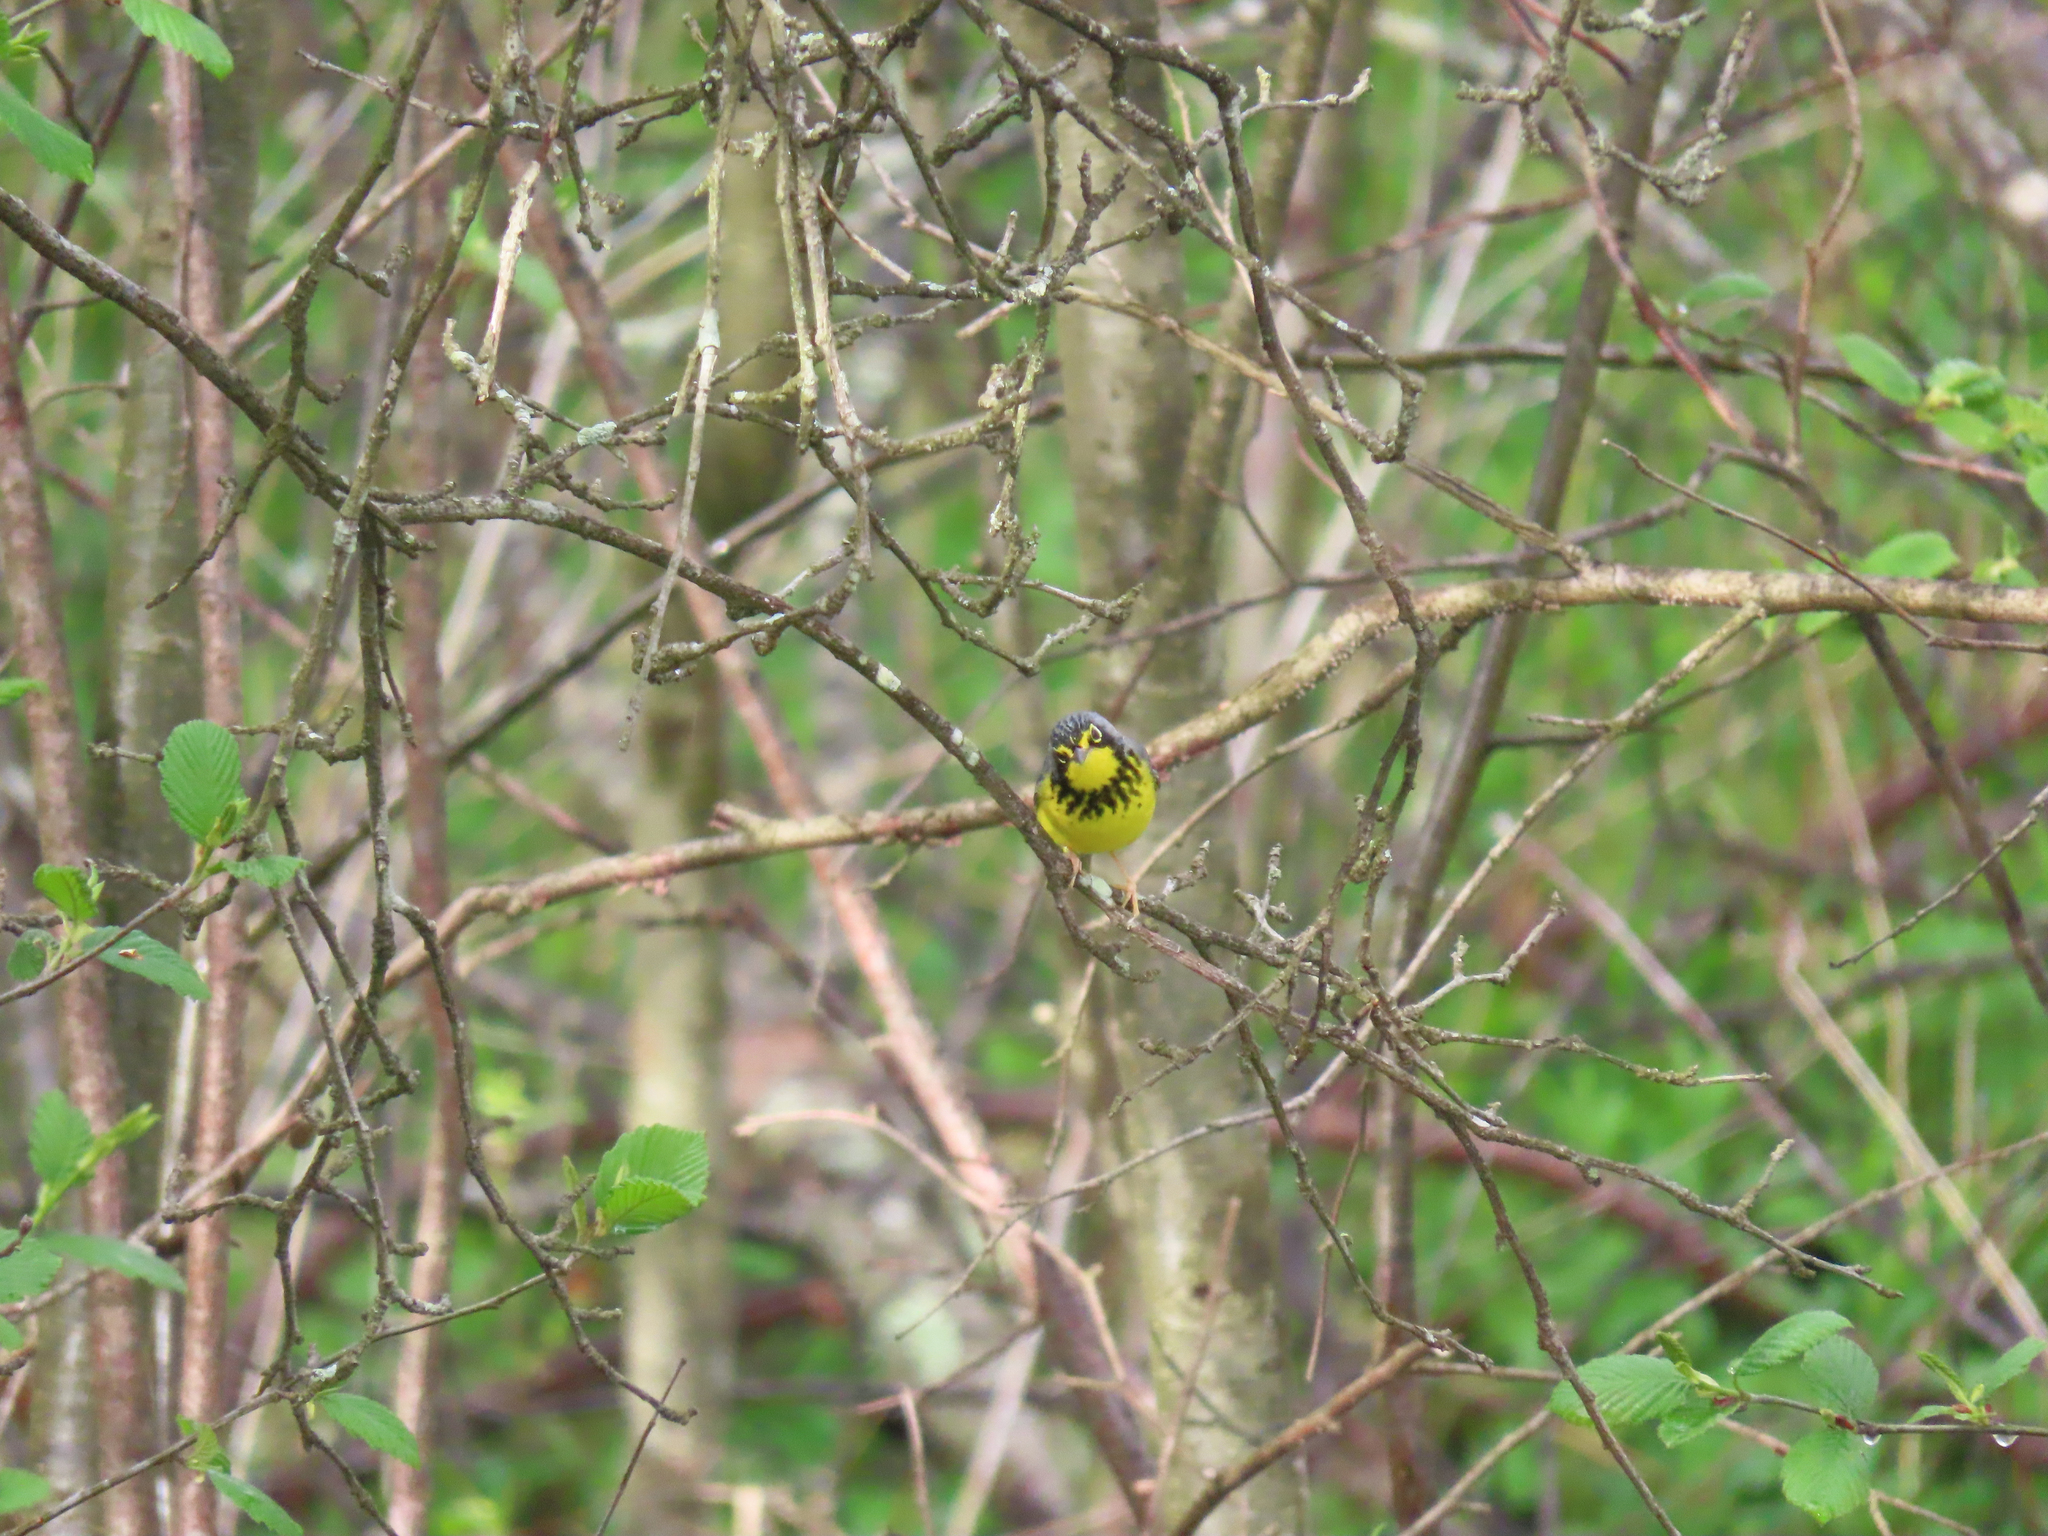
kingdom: Animalia
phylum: Chordata
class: Aves
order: Passeriformes
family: Parulidae
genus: Cardellina
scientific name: Cardellina canadensis
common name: Canada warbler
